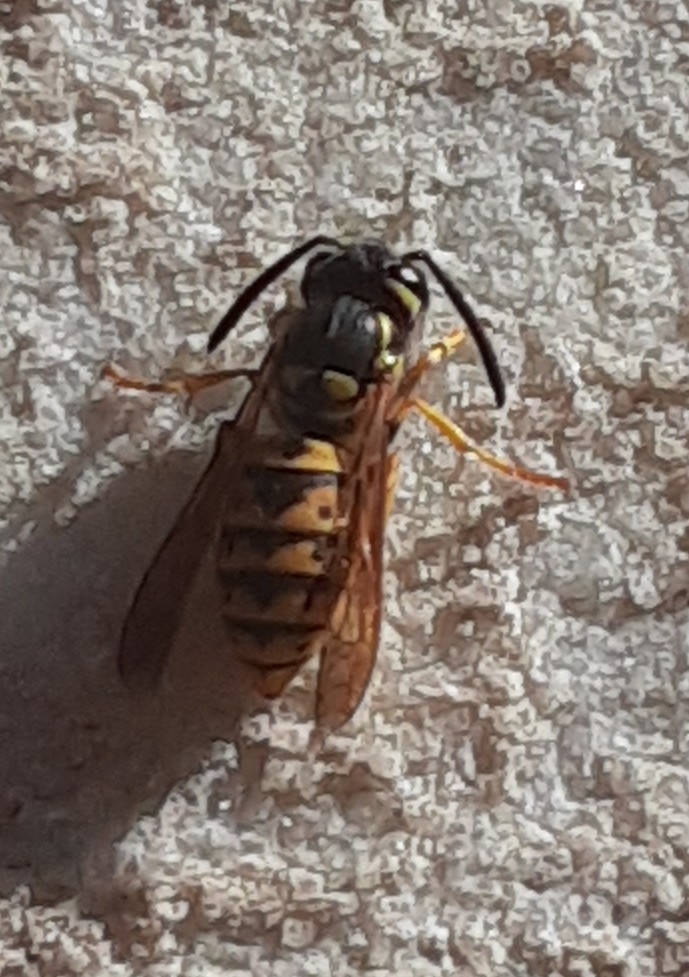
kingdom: Animalia
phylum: Arthropoda
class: Insecta
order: Hymenoptera
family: Vespidae
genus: Vespula
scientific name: Vespula germanica
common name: German wasp
